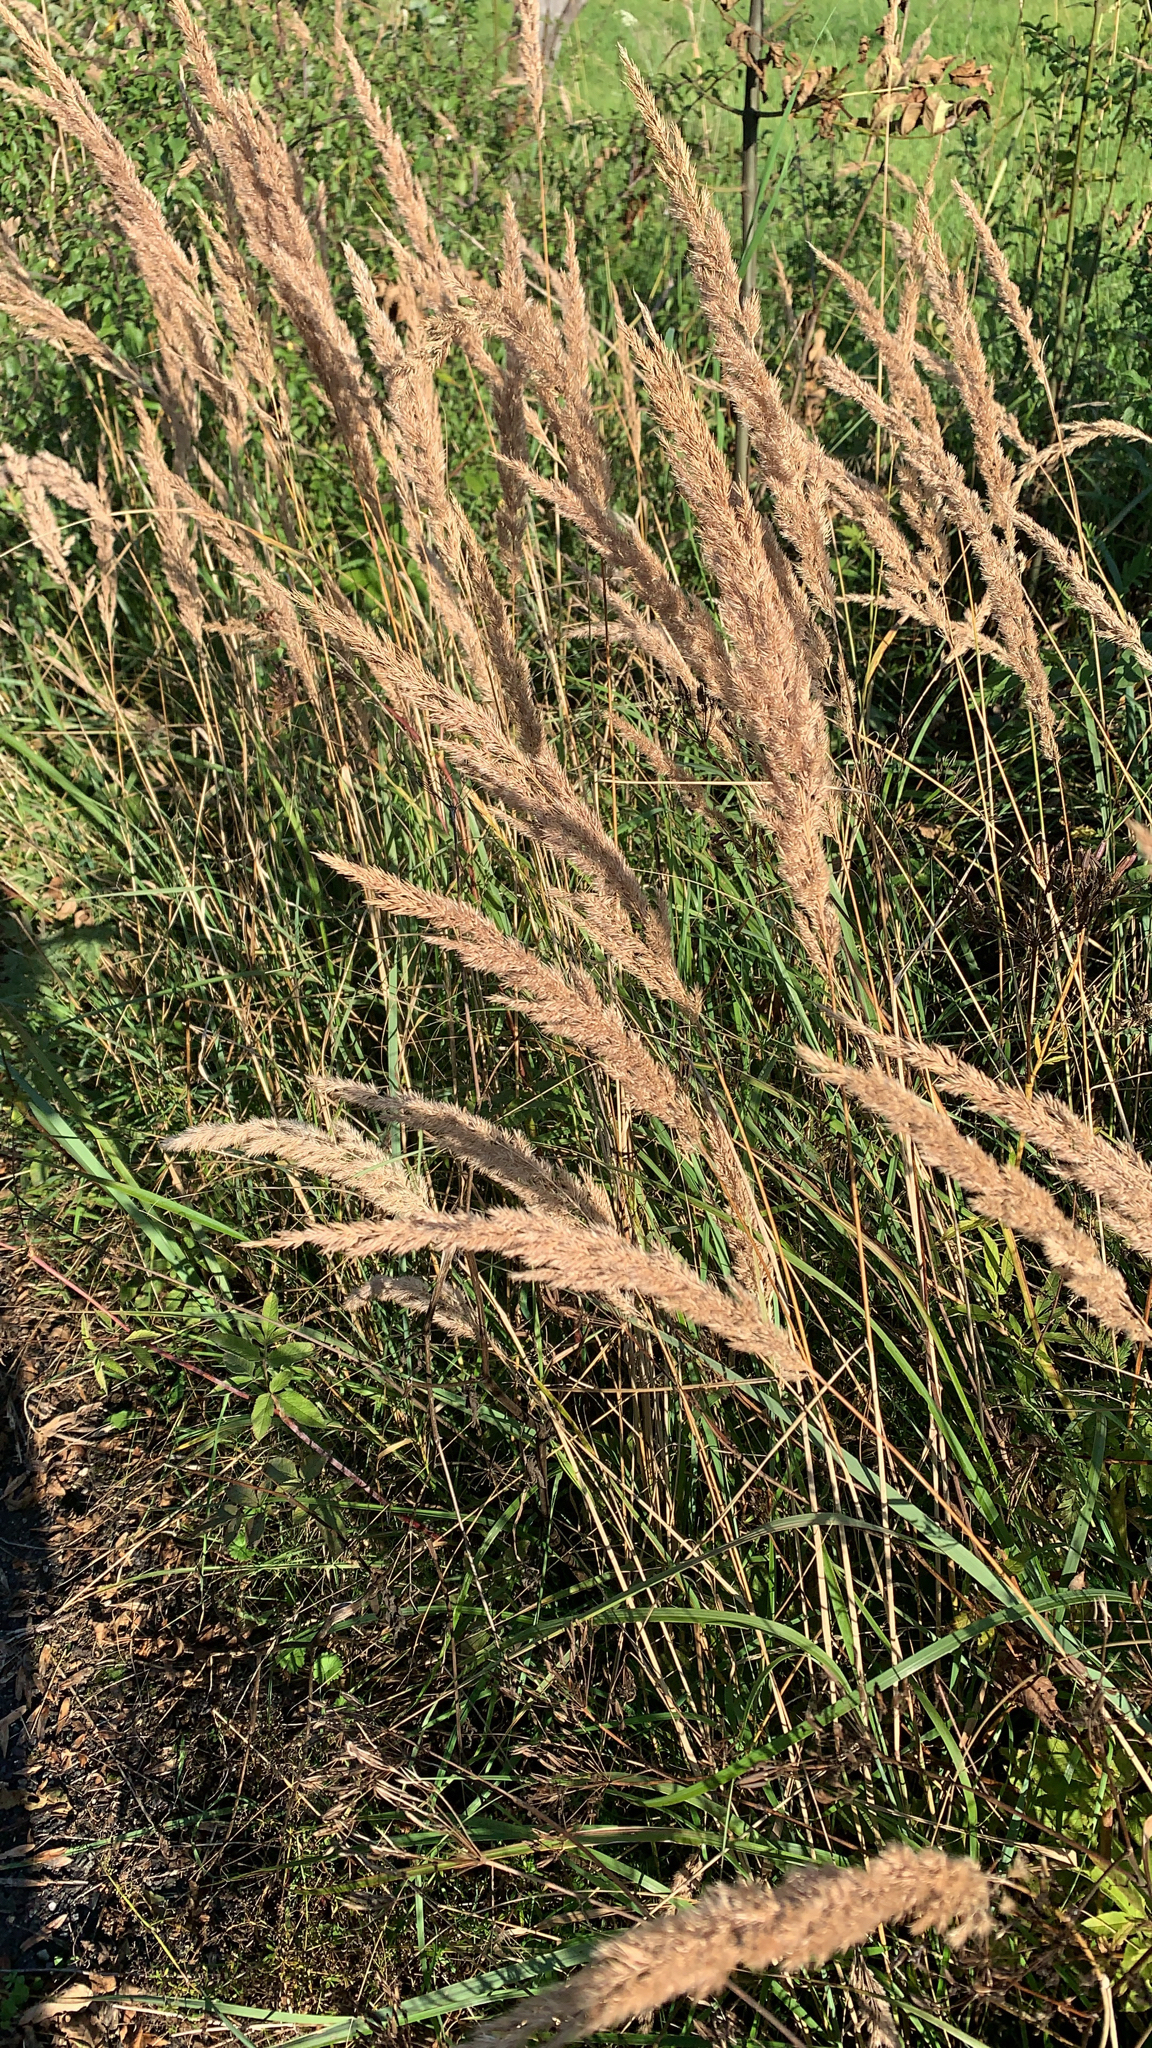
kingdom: Plantae
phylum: Tracheophyta
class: Liliopsida
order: Poales
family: Poaceae
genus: Calamagrostis
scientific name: Calamagrostis epigejos
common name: Wood small-reed
